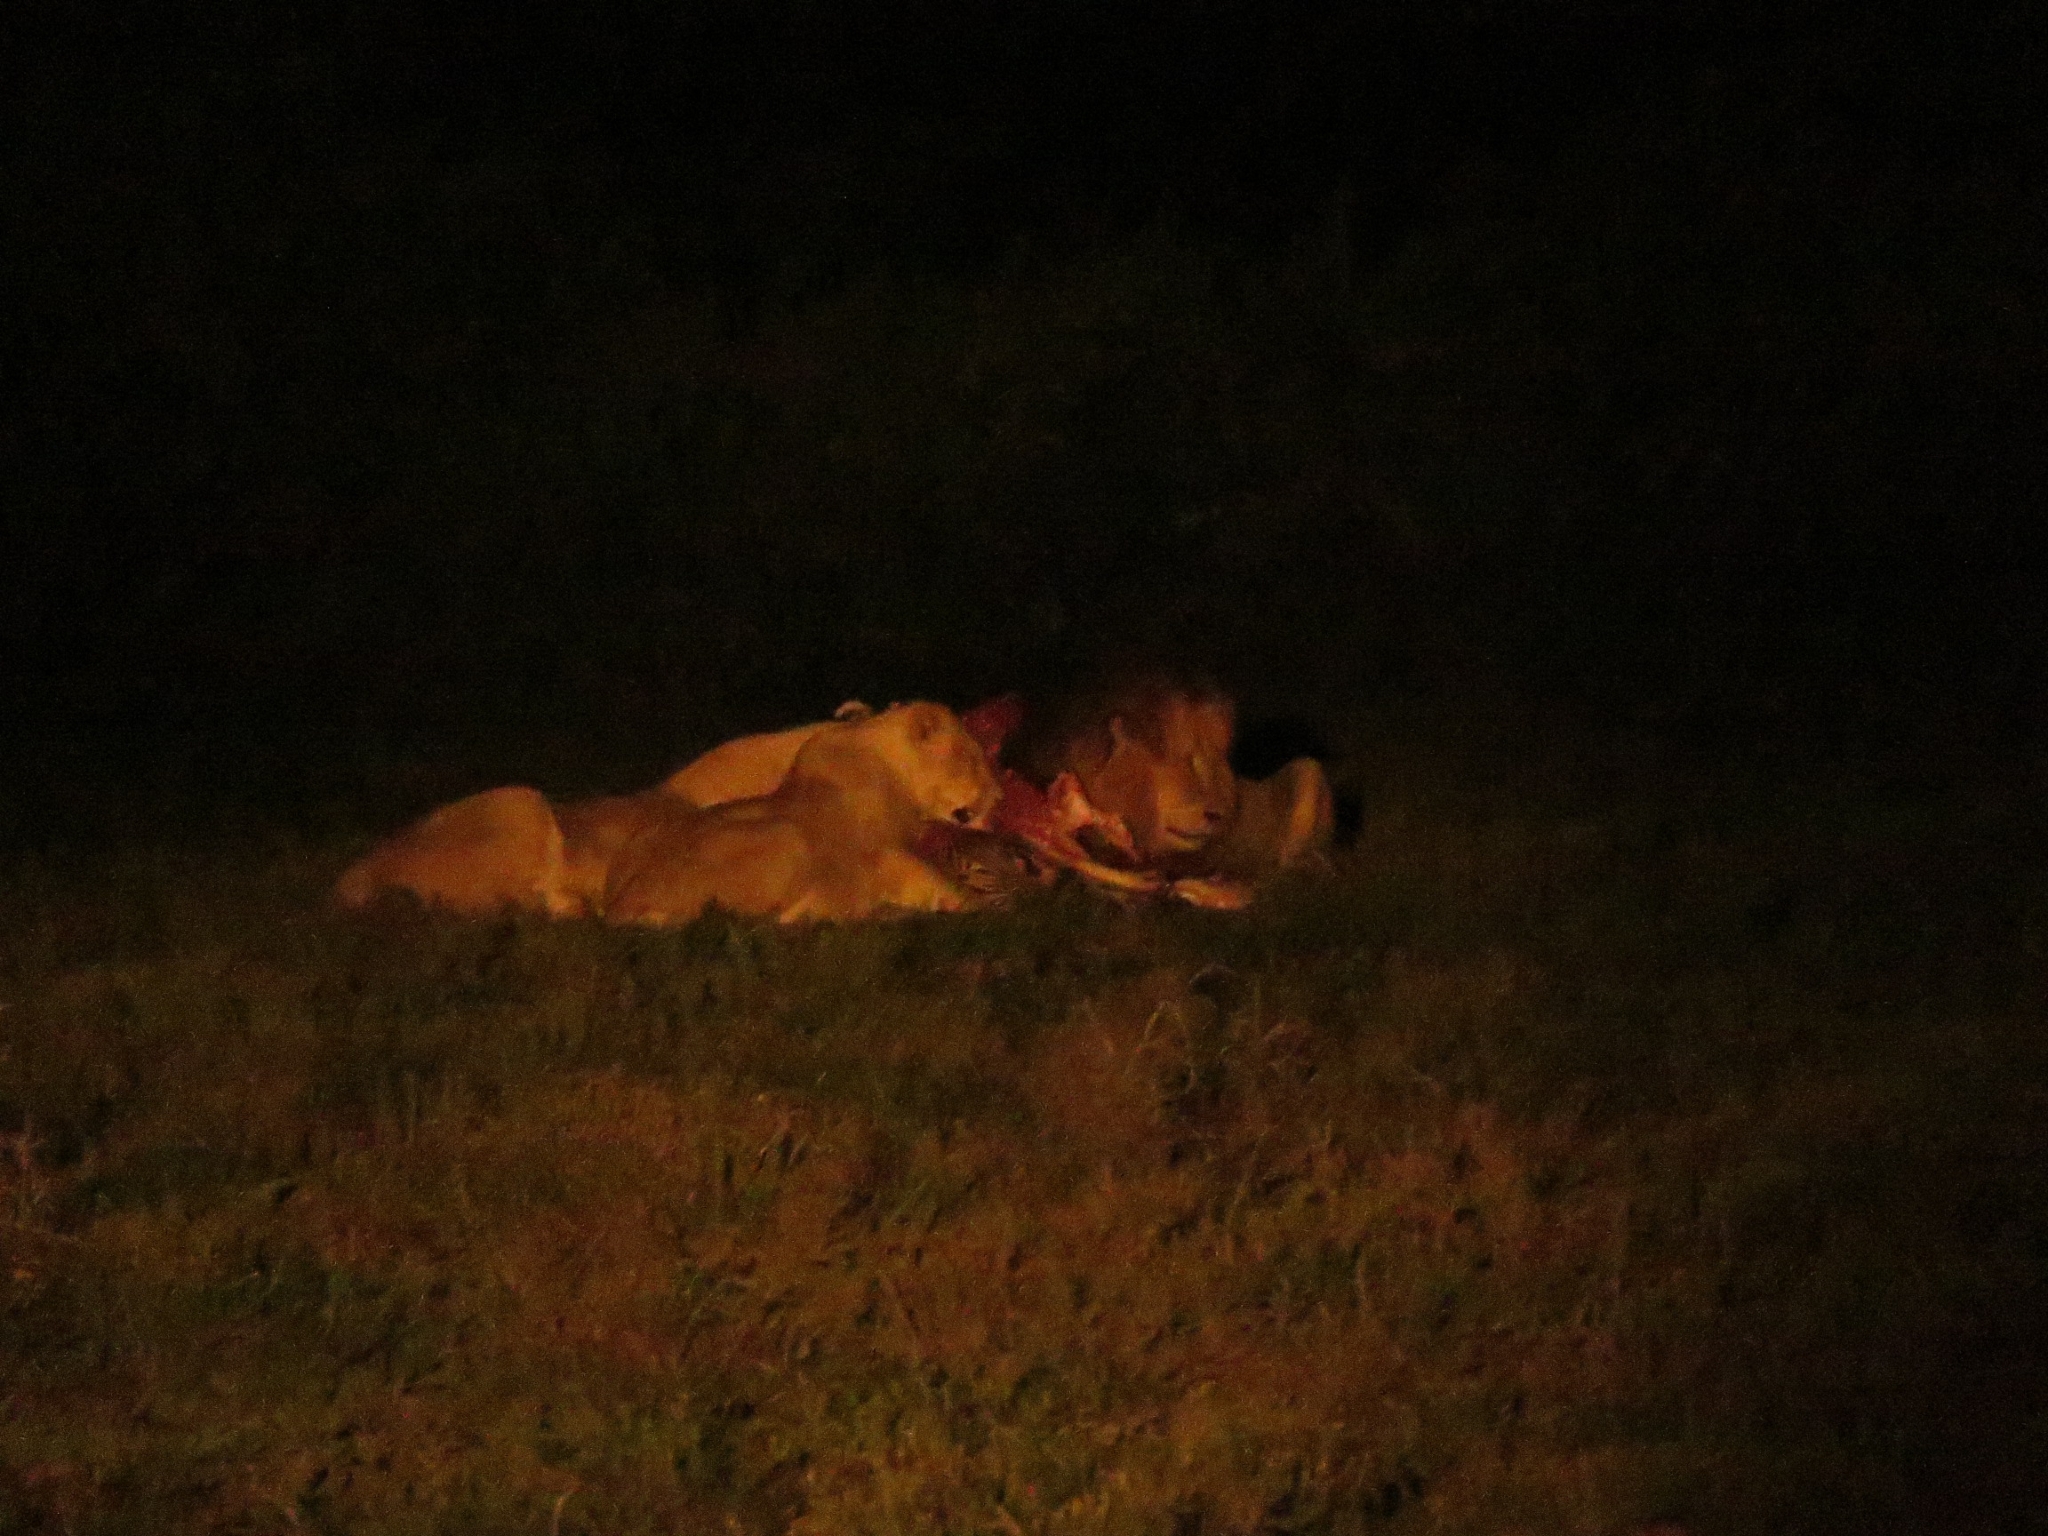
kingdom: Animalia
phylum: Chordata
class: Mammalia
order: Carnivora
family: Felidae
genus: Panthera
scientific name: Panthera leo
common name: Lion
